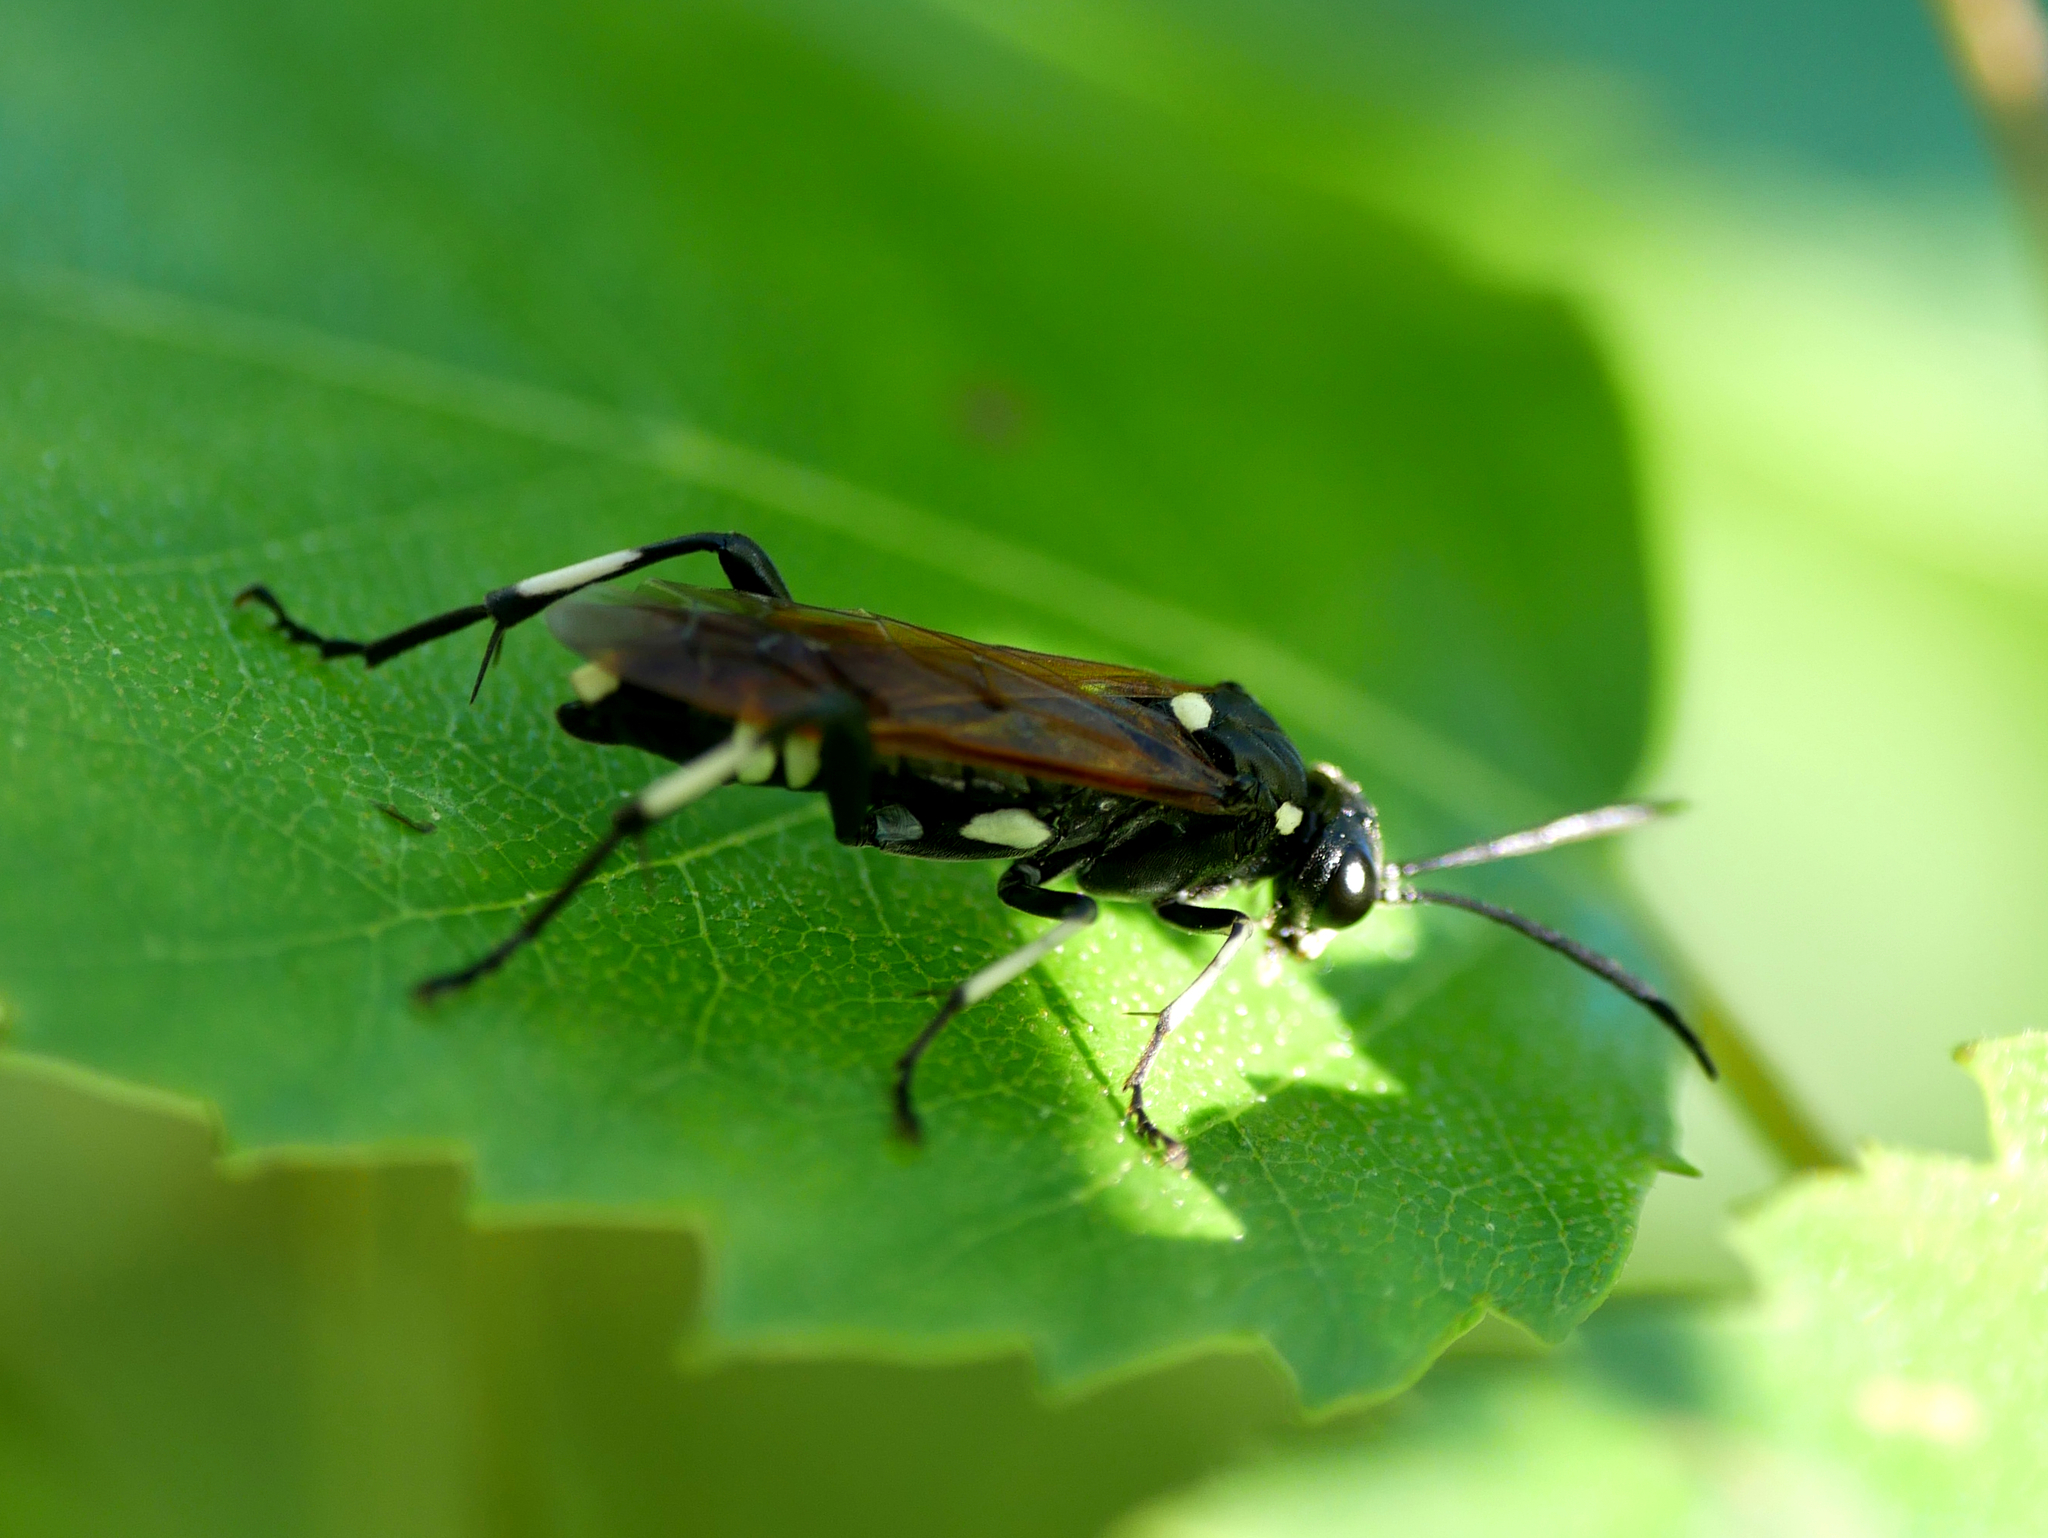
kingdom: Animalia
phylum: Arthropoda
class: Insecta
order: Hymenoptera
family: Tenthredinidae
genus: Macrophya
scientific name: Macrophya duodecimpunctata
